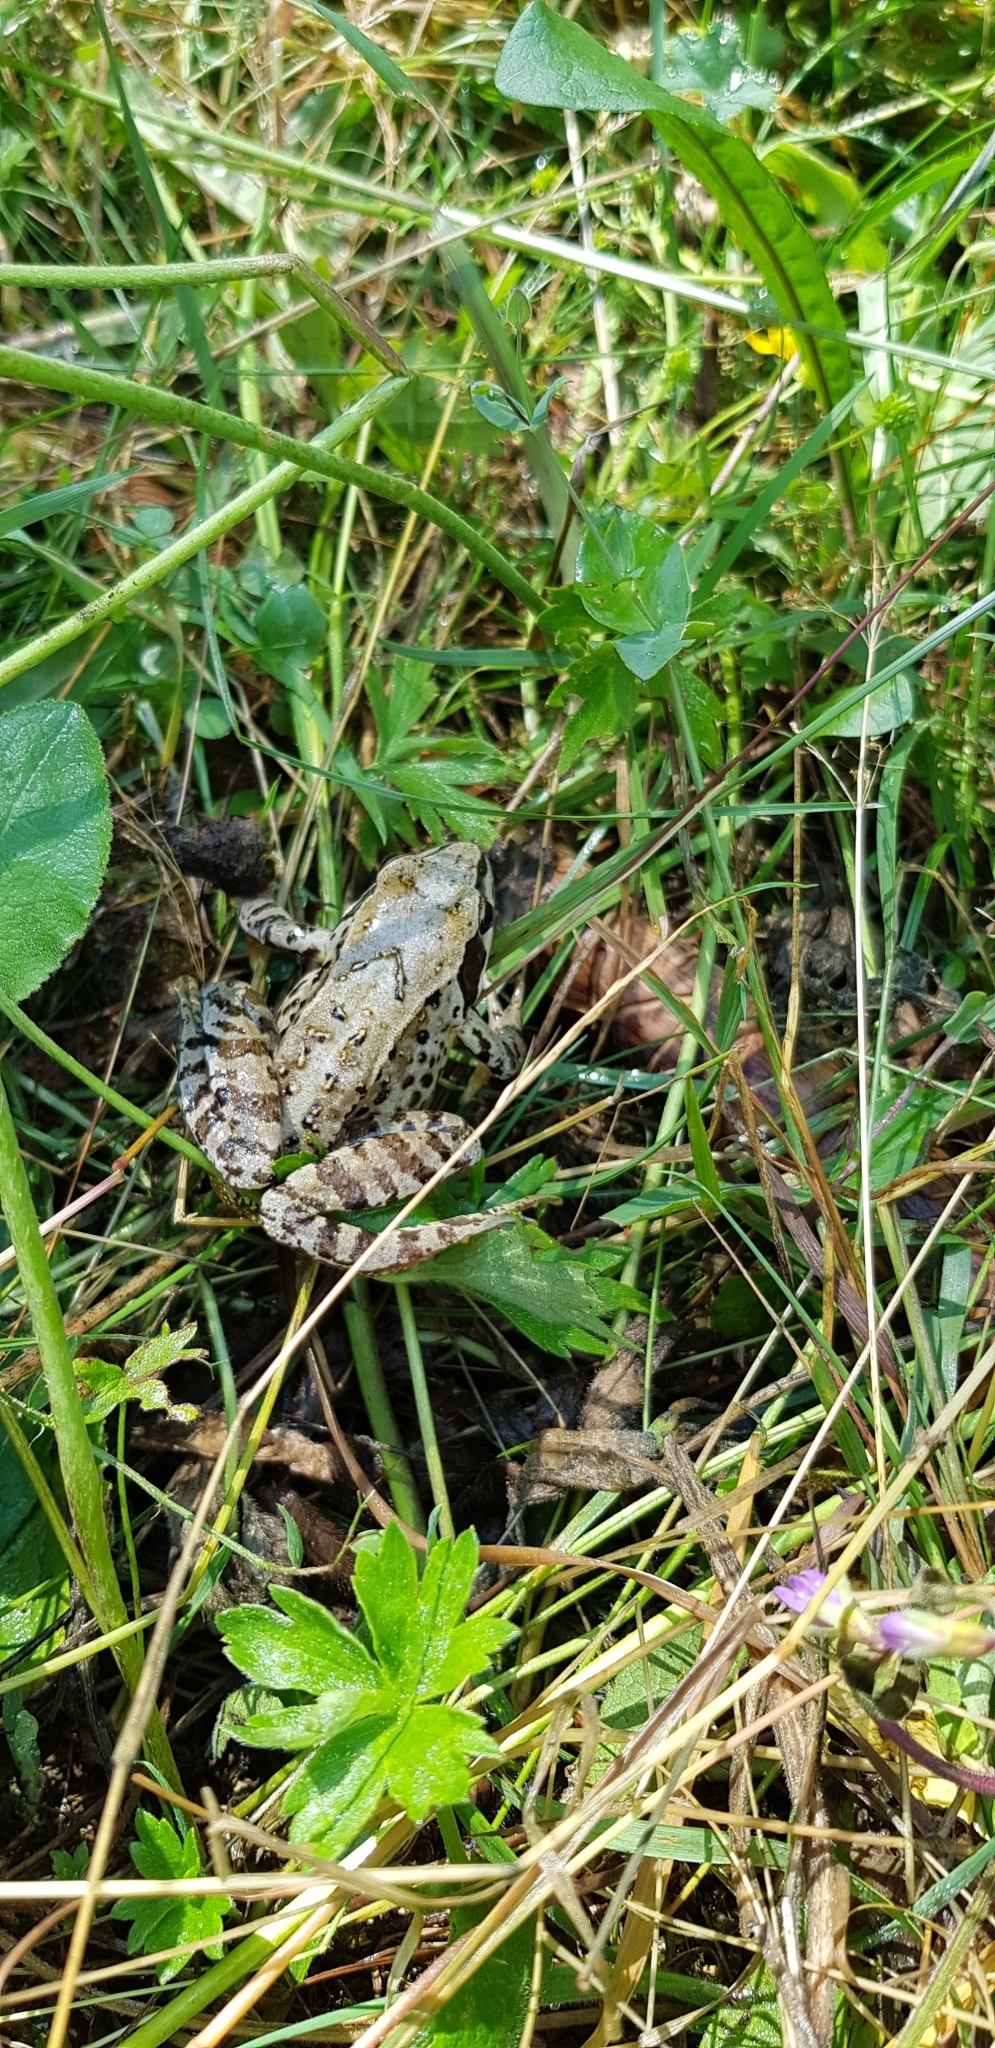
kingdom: Animalia
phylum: Chordata
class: Amphibia
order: Anura
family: Ranidae
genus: Rana
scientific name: Rana temporaria
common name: Common frog
